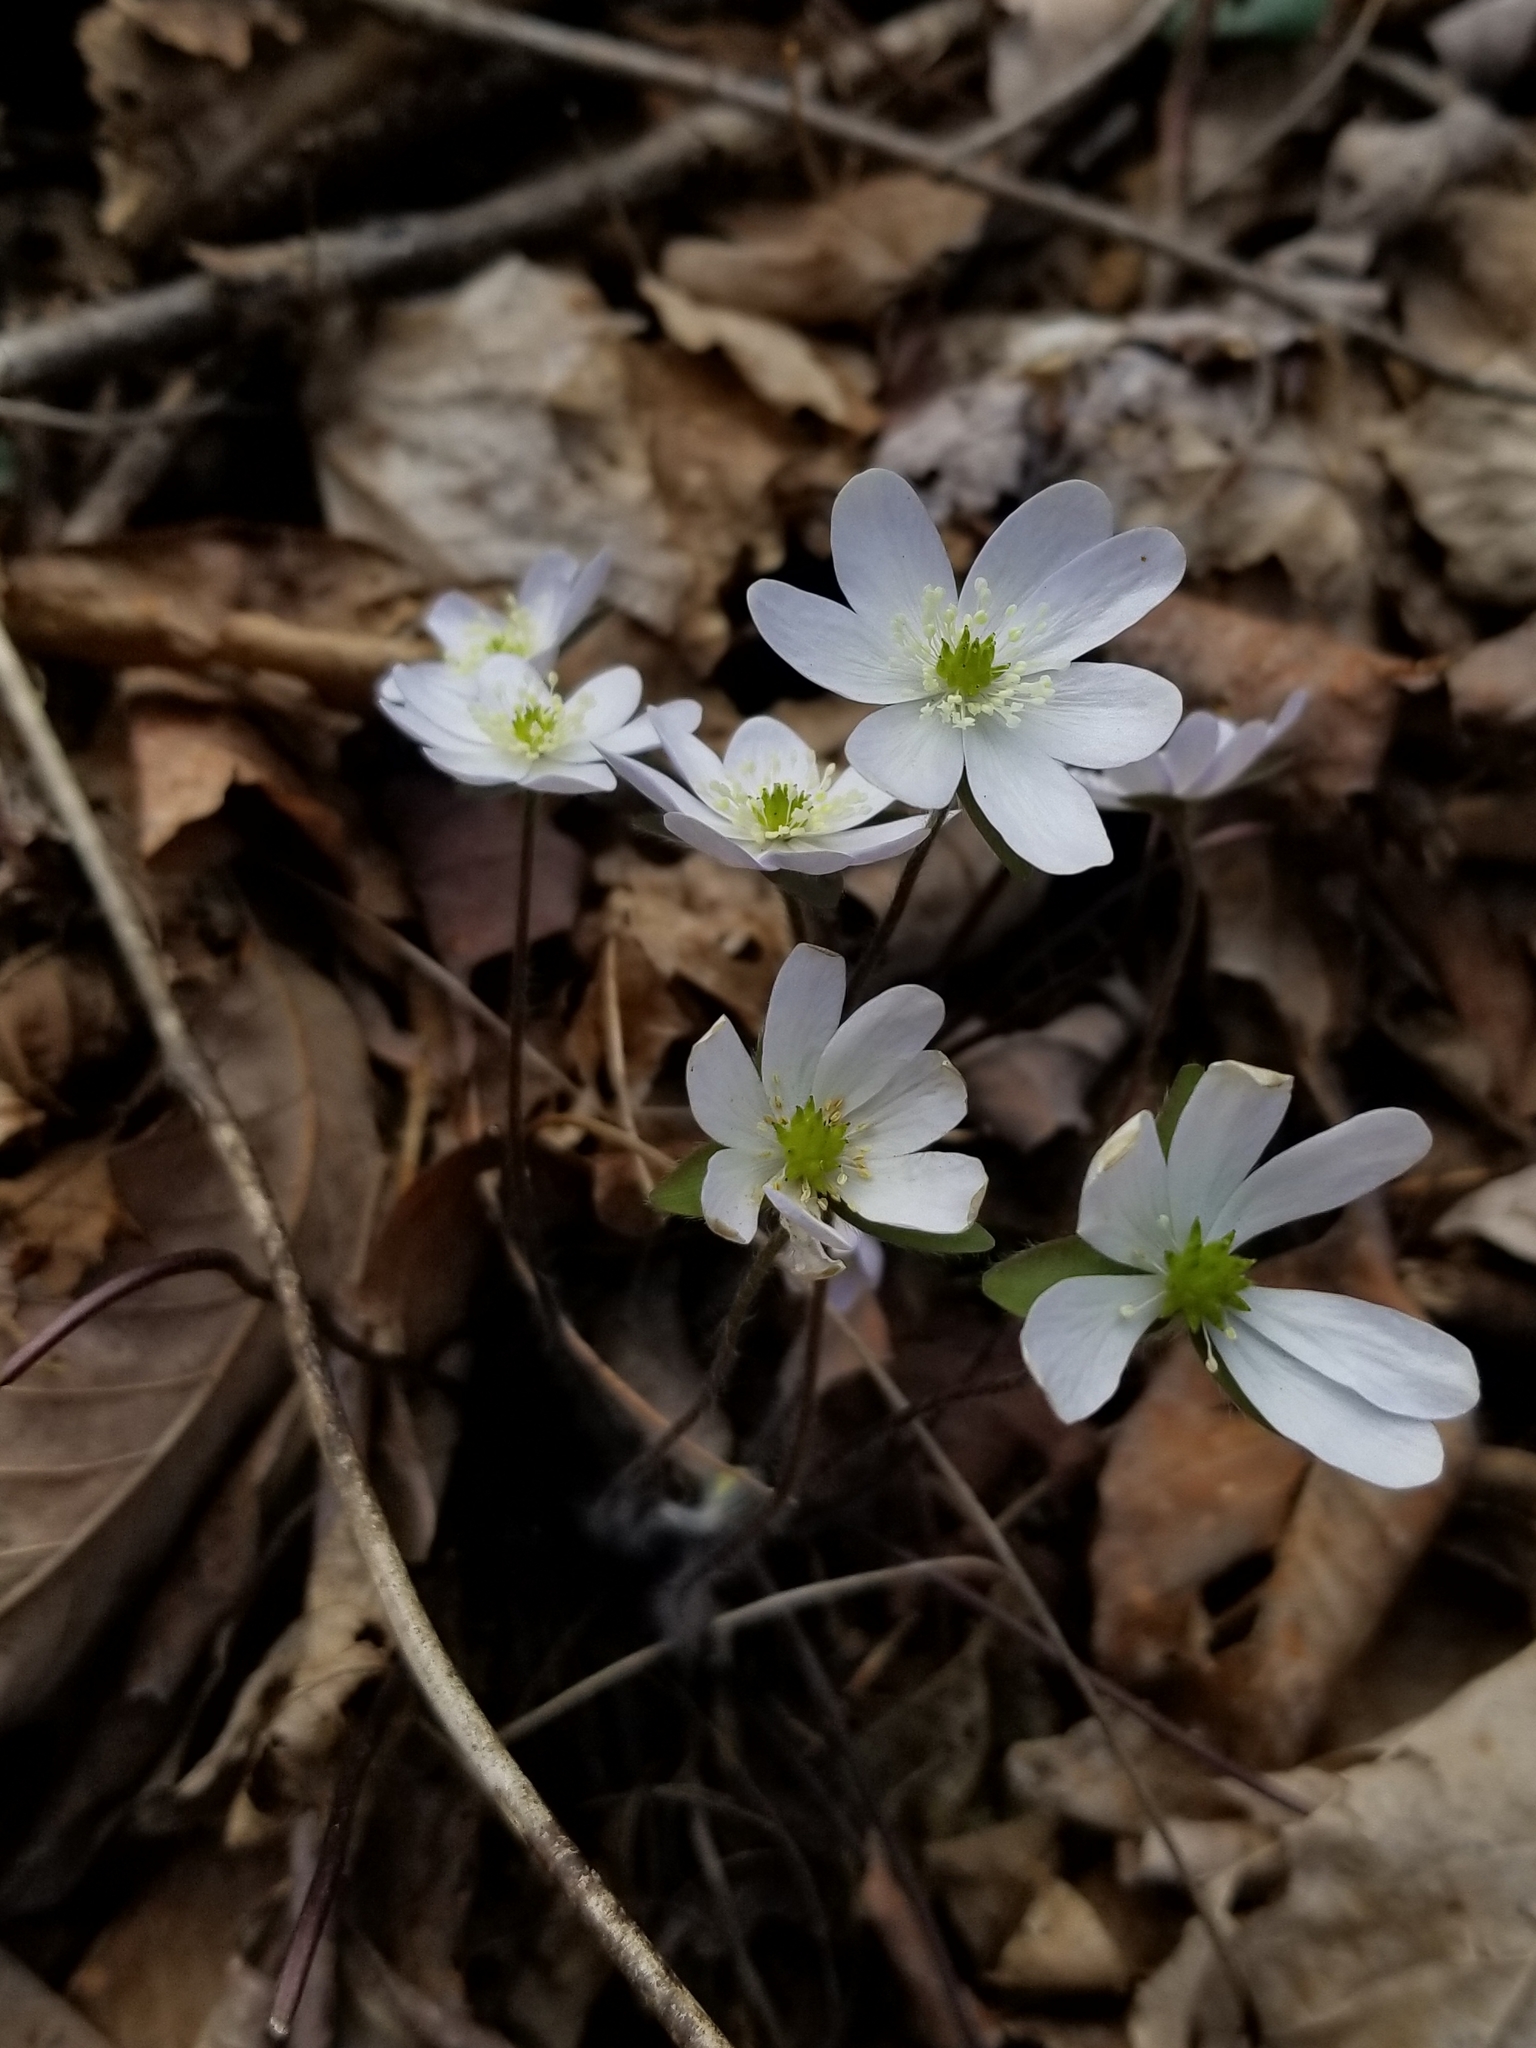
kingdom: Plantae
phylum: Tracheophyta
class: Magnoliopsida
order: Ranunculales
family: Ranunculaceae
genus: Hepatica
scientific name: Hepatica acutiloba
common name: Sharp-lobed hepatica
